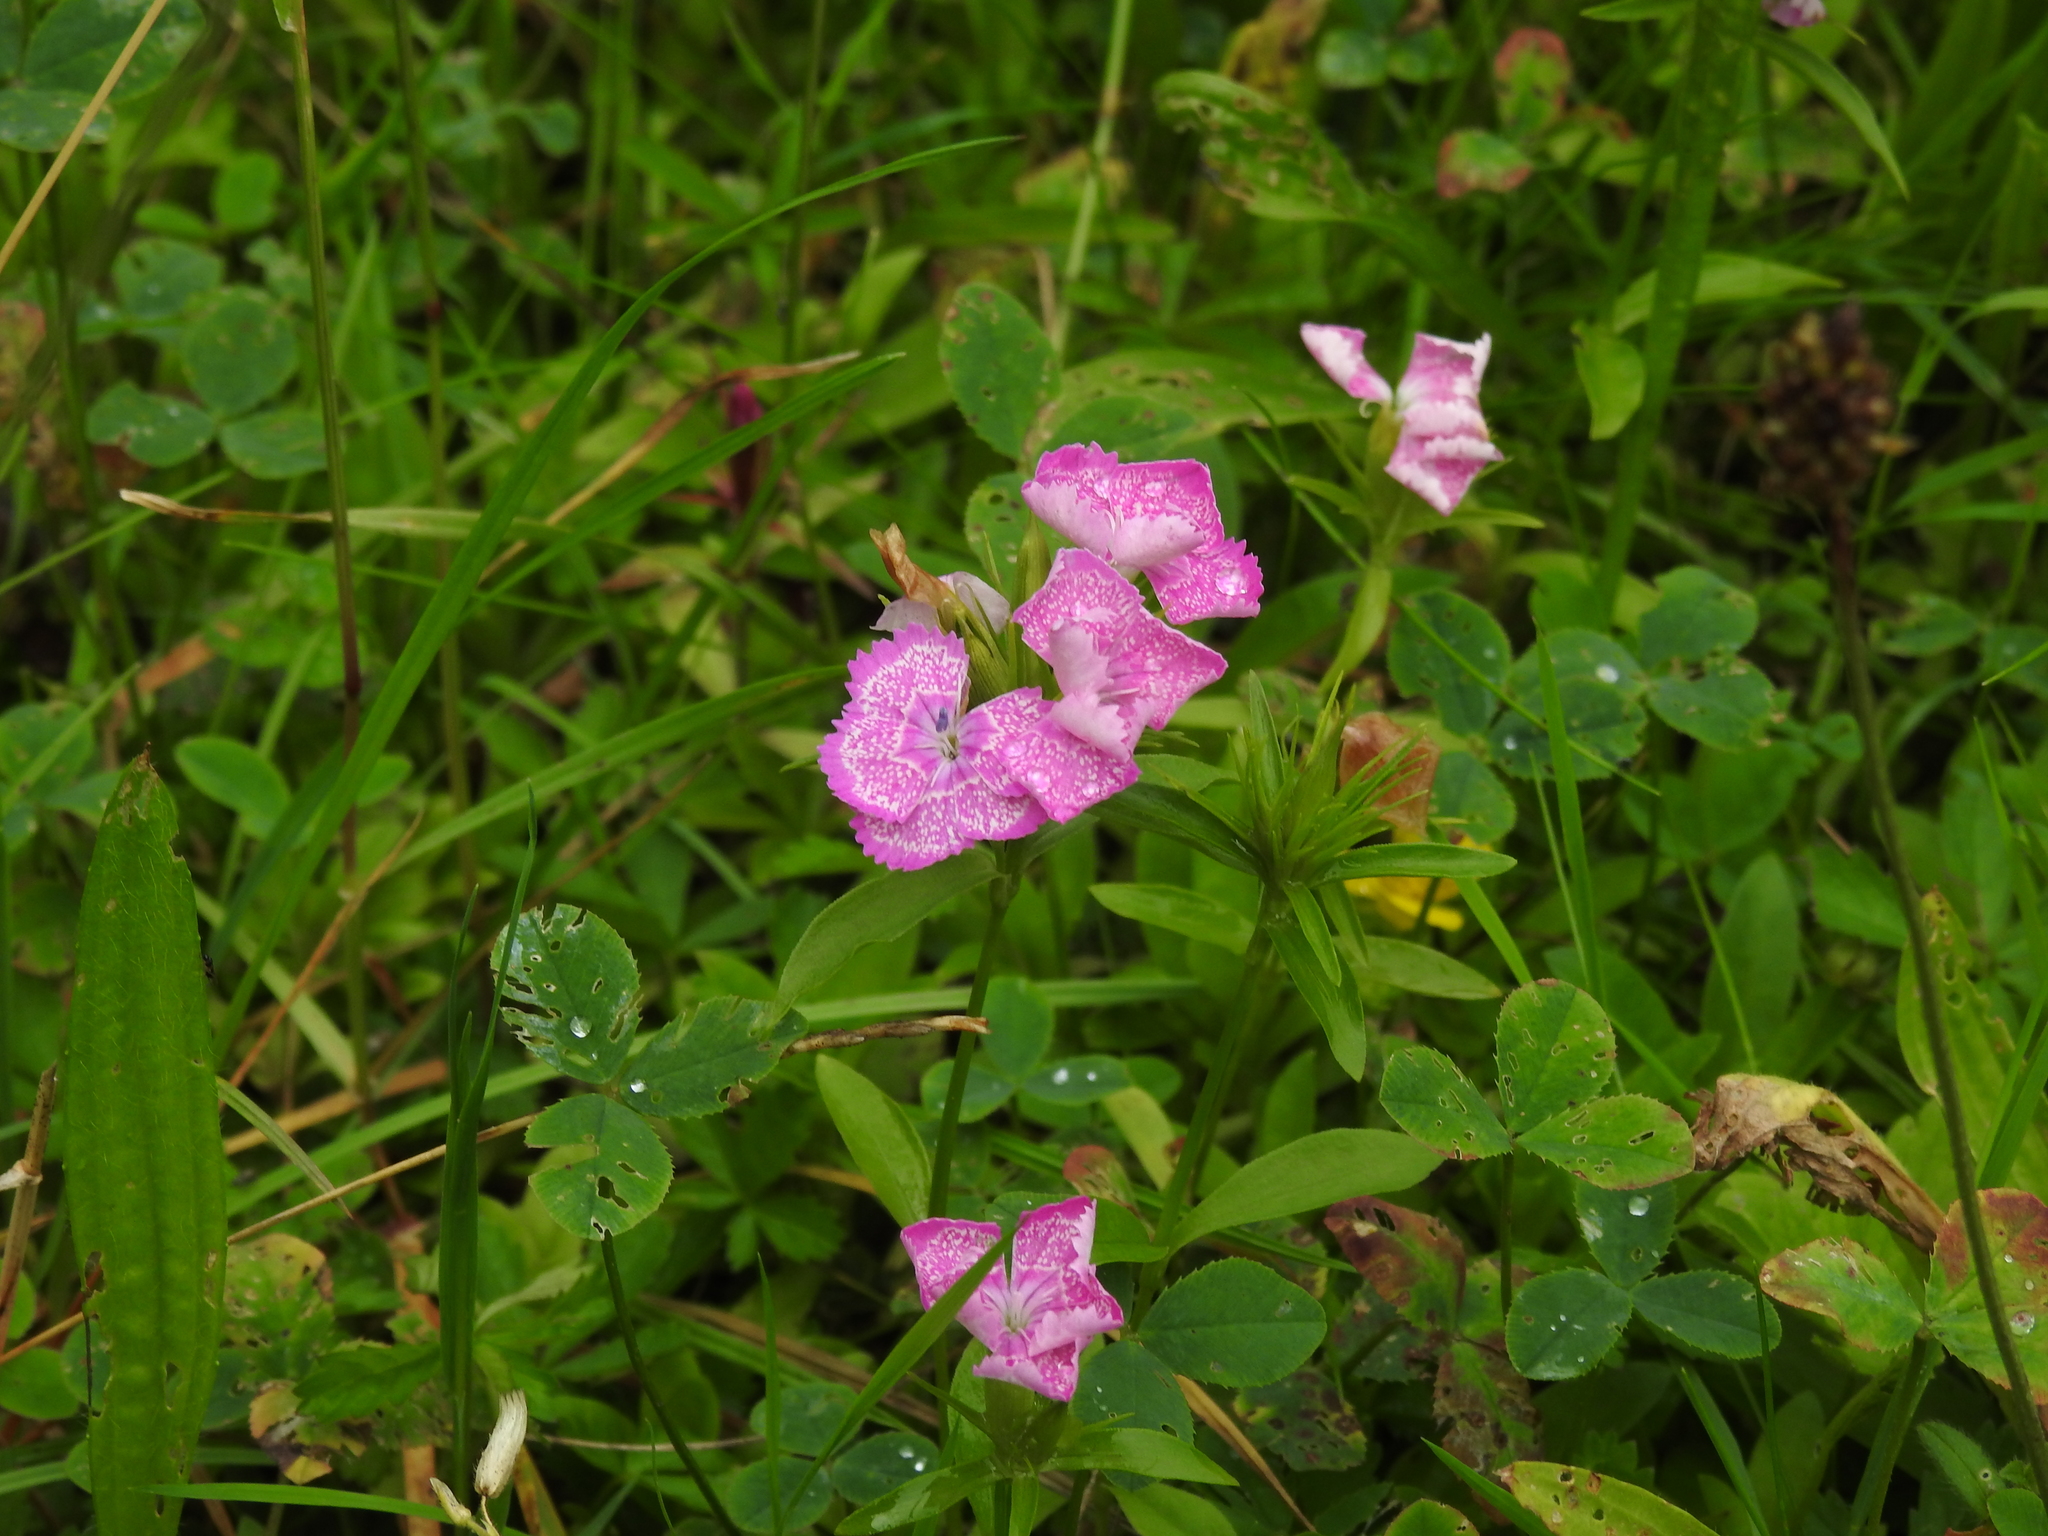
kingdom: Plantae
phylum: Tracheophyta
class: Magnoliopsida
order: Caryophyllales
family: Caryophyllaceae
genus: Dianthus
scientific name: Dianthus barbatus
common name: Sweet-william
